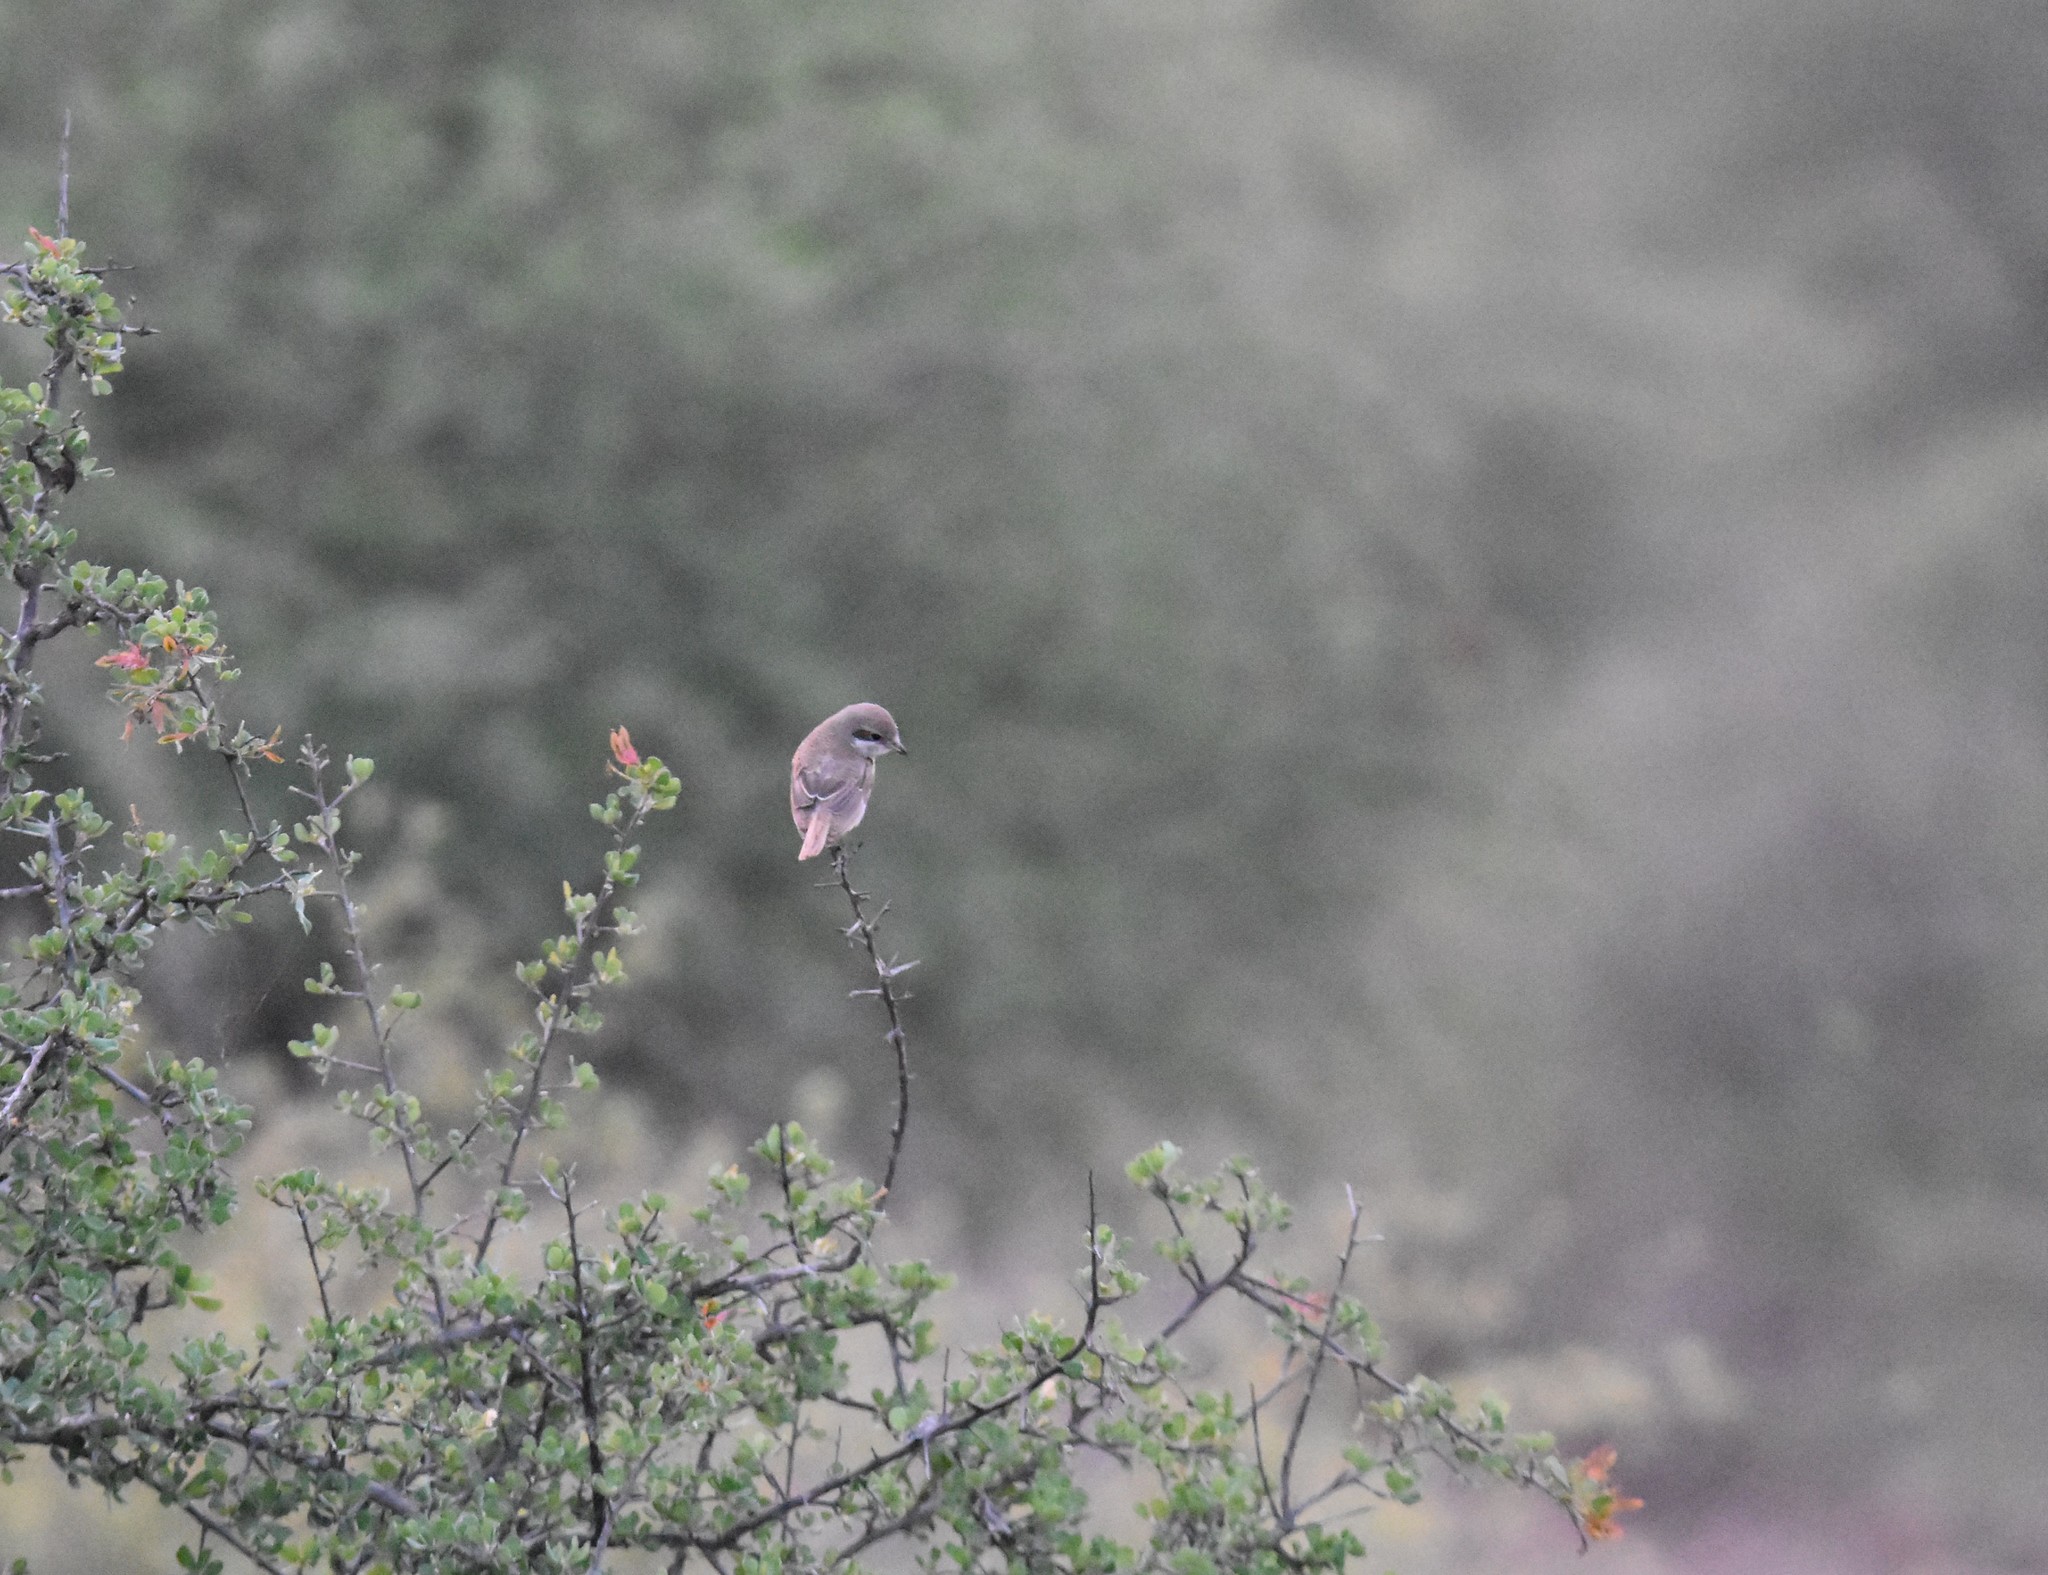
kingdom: Animalia
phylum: Chordata
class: Aves
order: Passeriformes
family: Laniidae
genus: Lanius
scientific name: Lanius collurio
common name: Red-backed shrike
